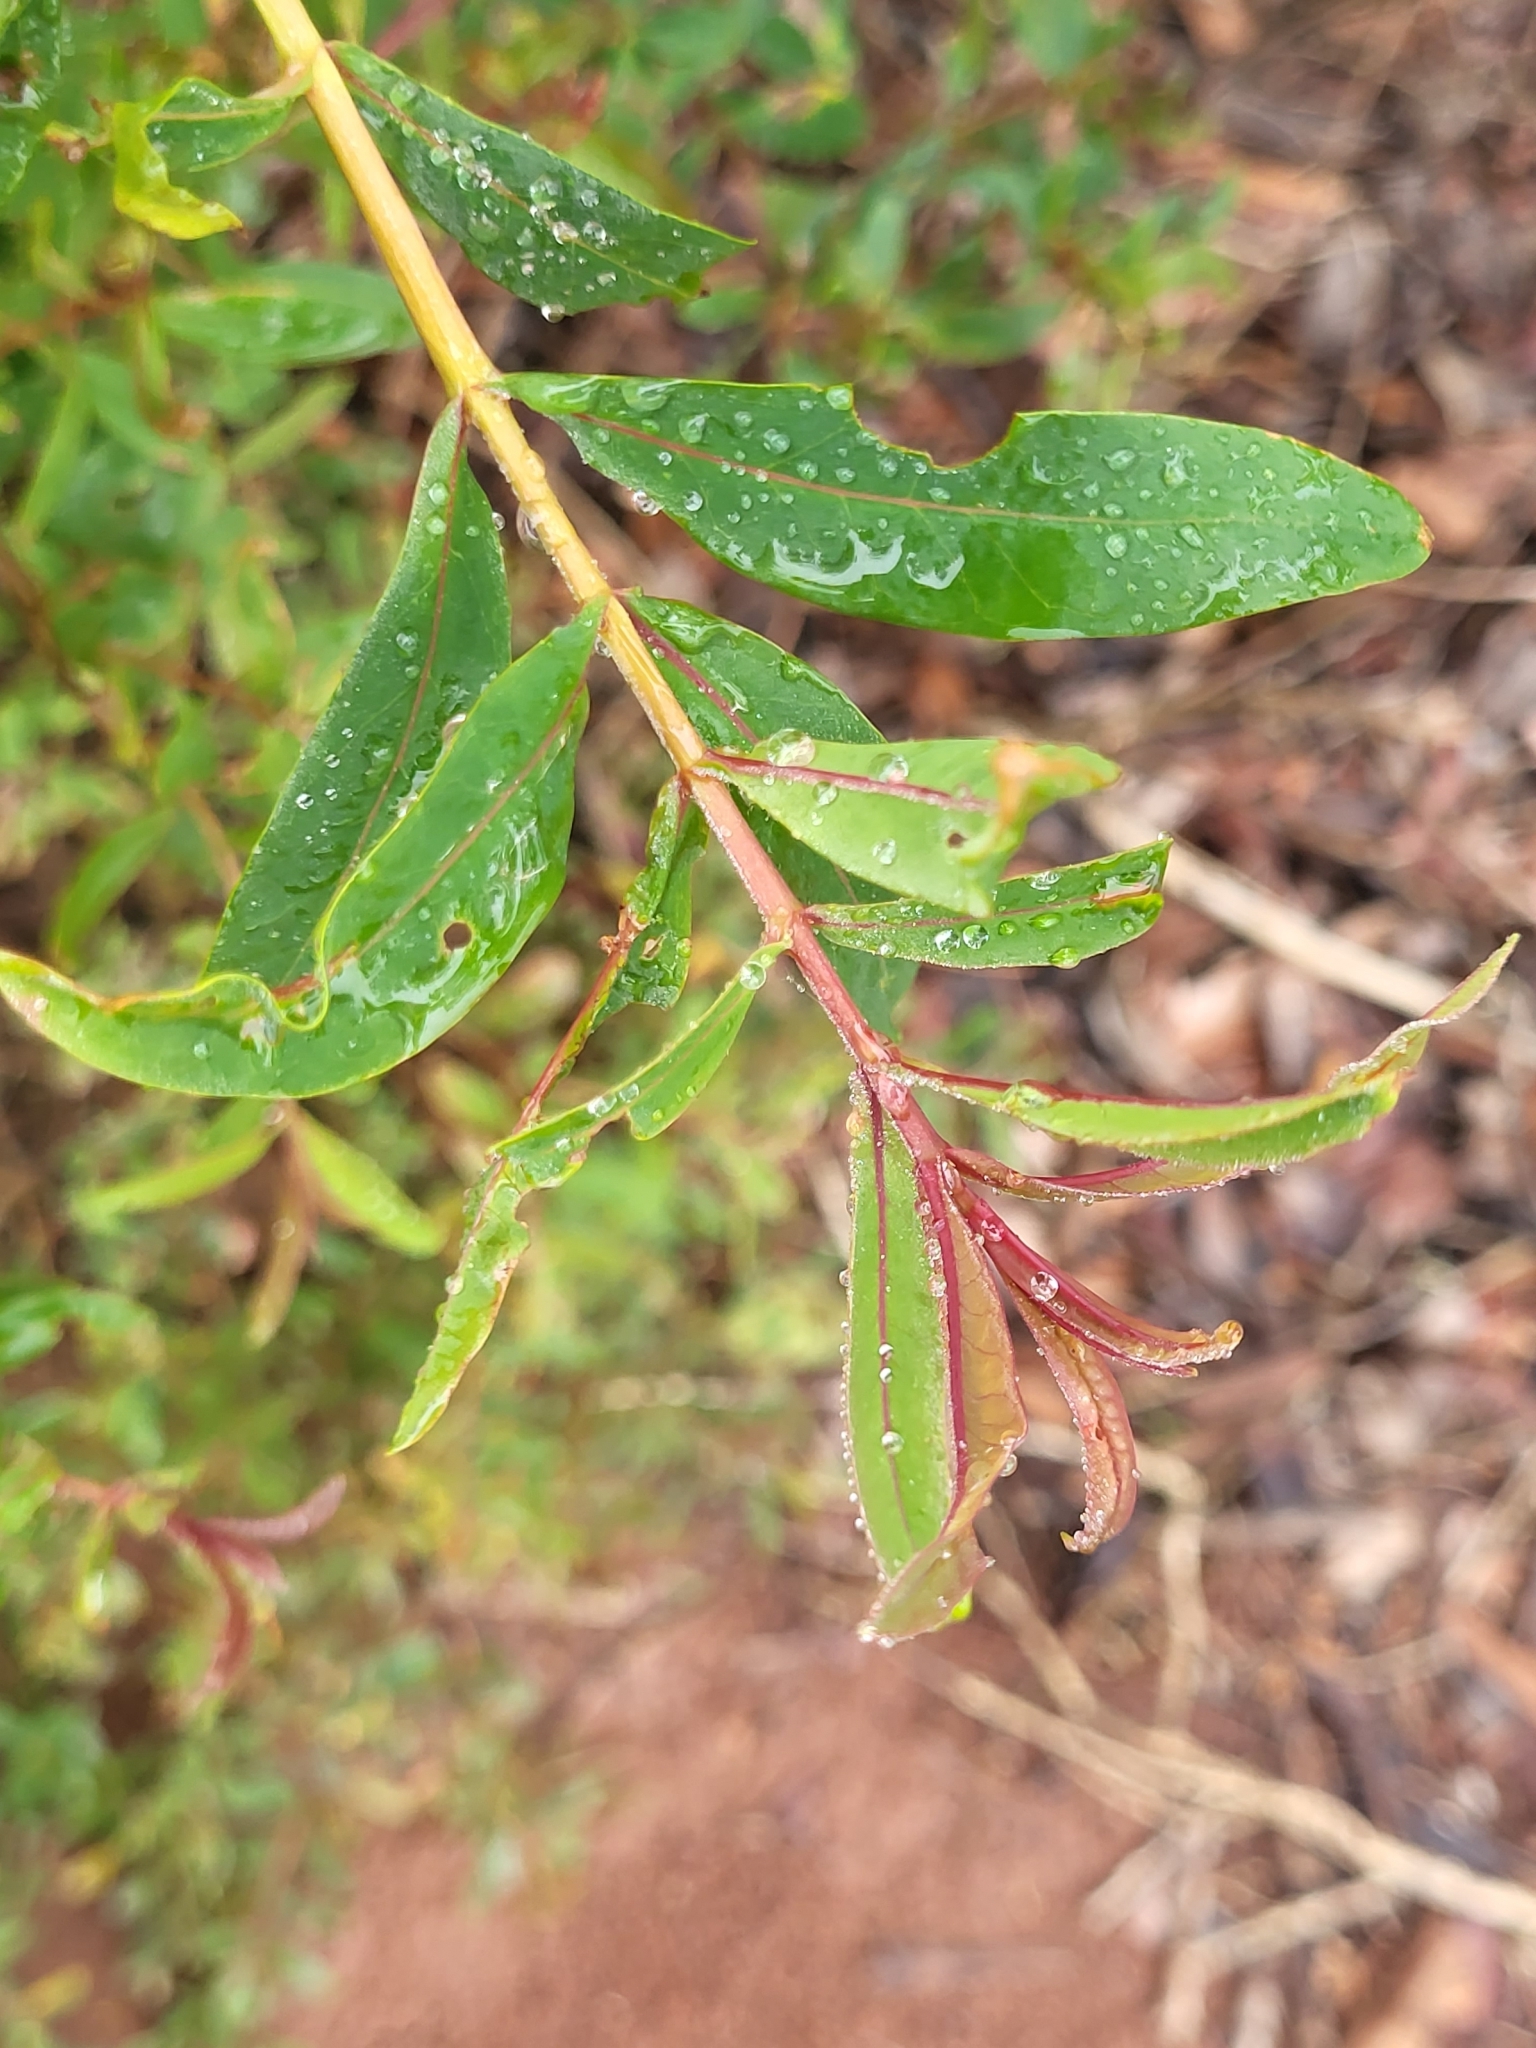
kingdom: Plantae
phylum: Tracheophyta
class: Magnoliopsida
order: Malpighiales
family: Hypericaceae
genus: Hypericum
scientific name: Hypericum canariense
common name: Canary island st. johnswort
